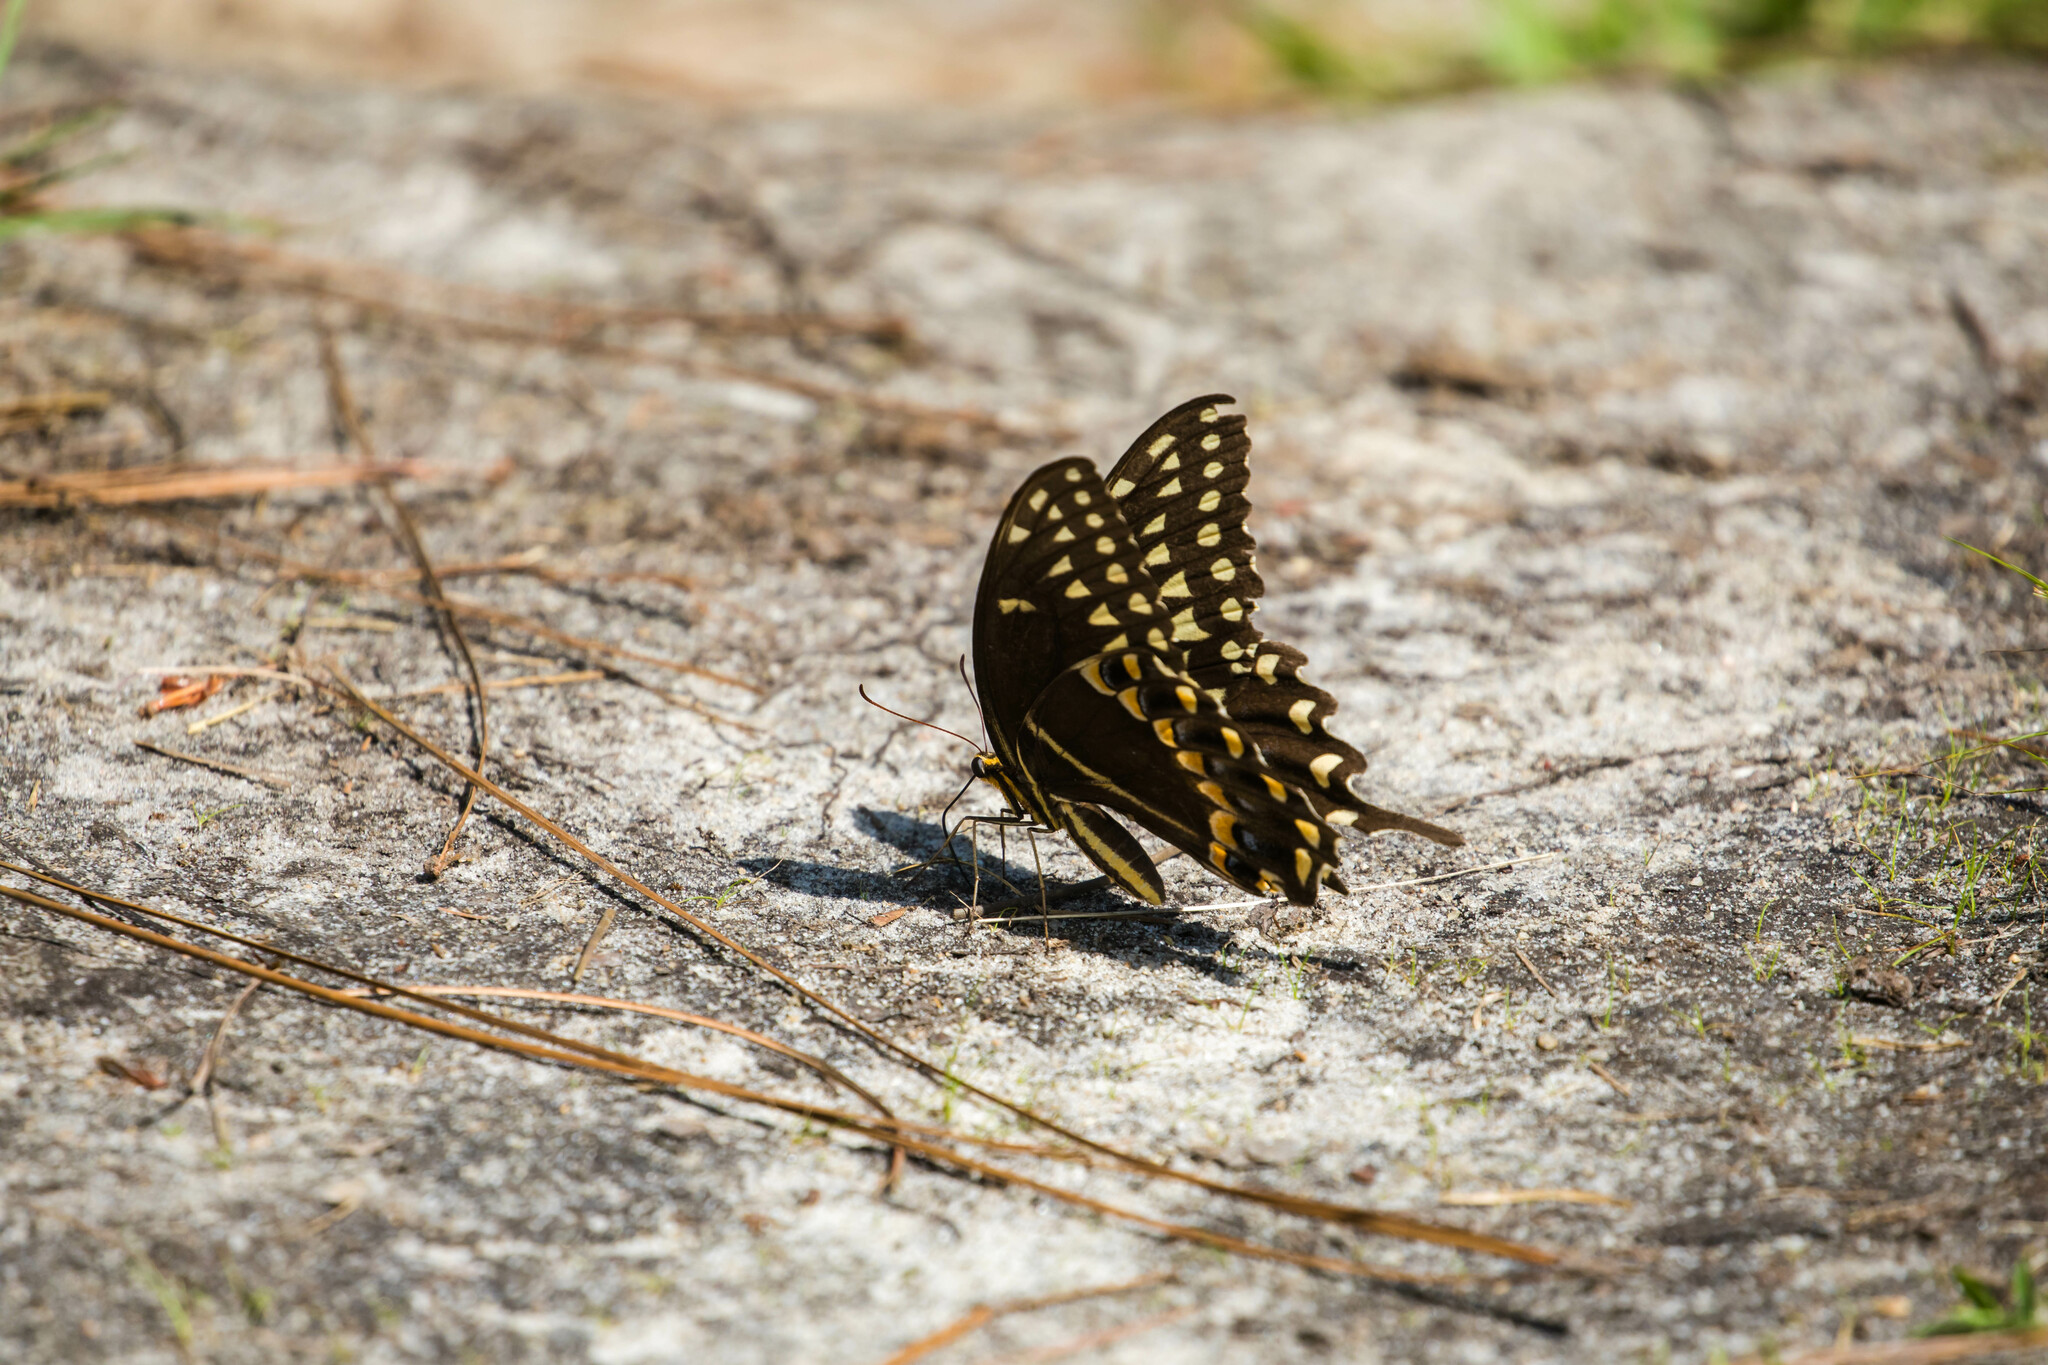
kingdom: Animalia
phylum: Arthropoda
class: Insecta
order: Lepidoptera
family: Papilionidae
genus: Papilio
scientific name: Papilio palamedes
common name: Palamedes swallowtail
